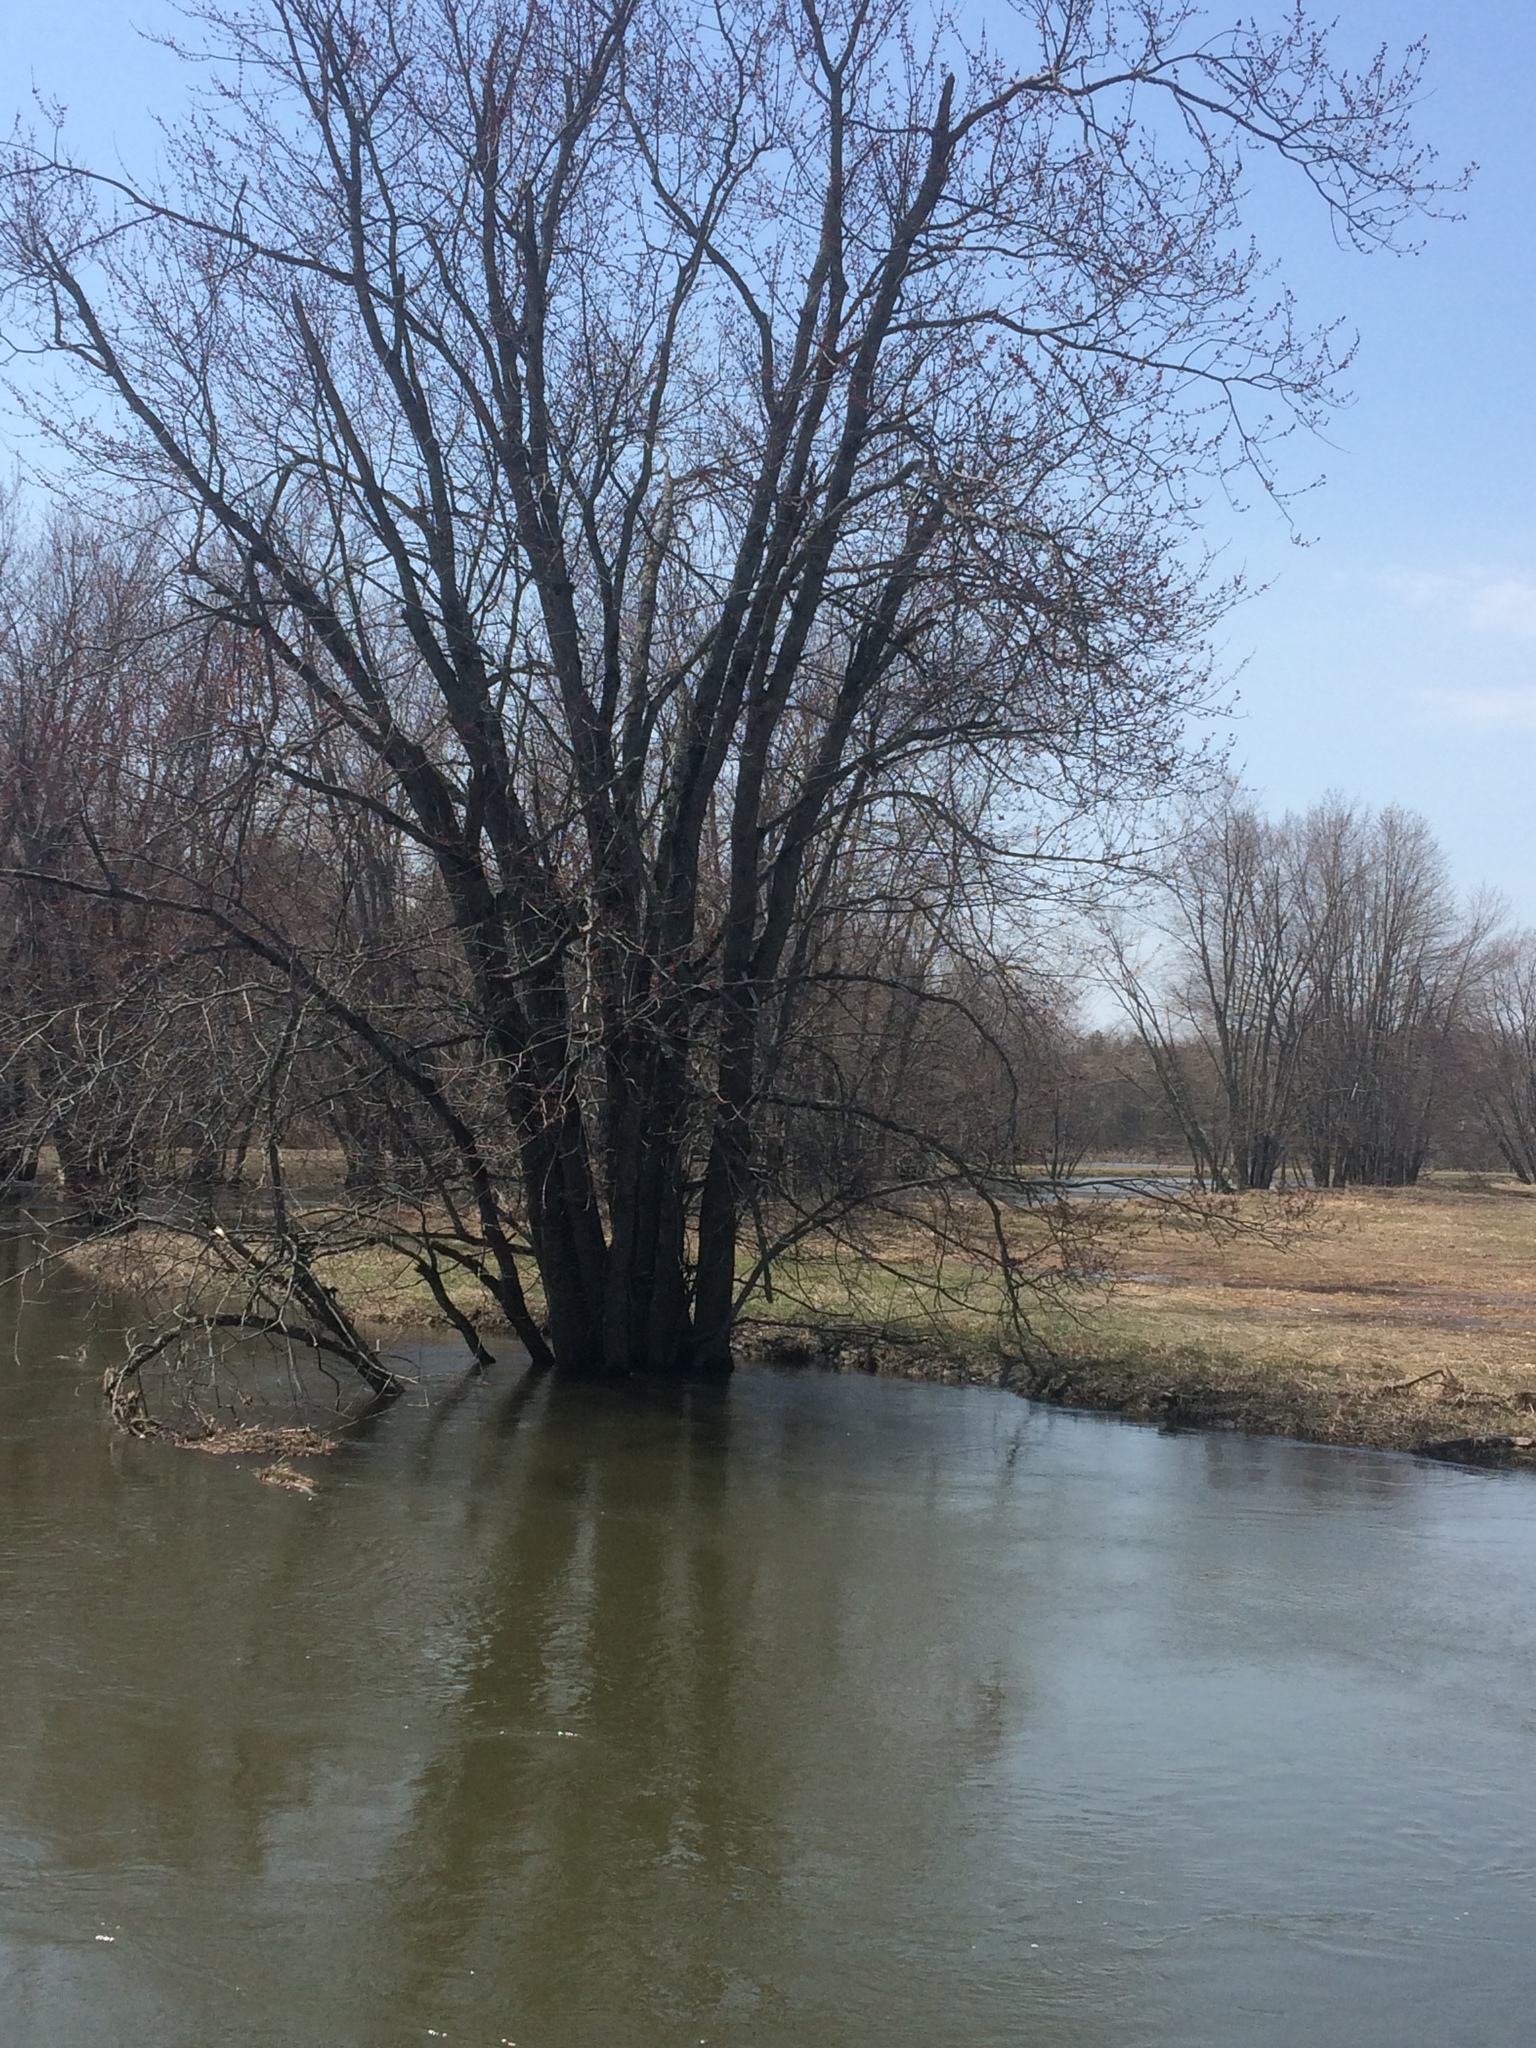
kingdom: Plantae
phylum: Tracheophyta
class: Magnoliopsida
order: Sapindales
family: Sapindaceae
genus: Acer
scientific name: Acer saccharinum
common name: Silver maple
